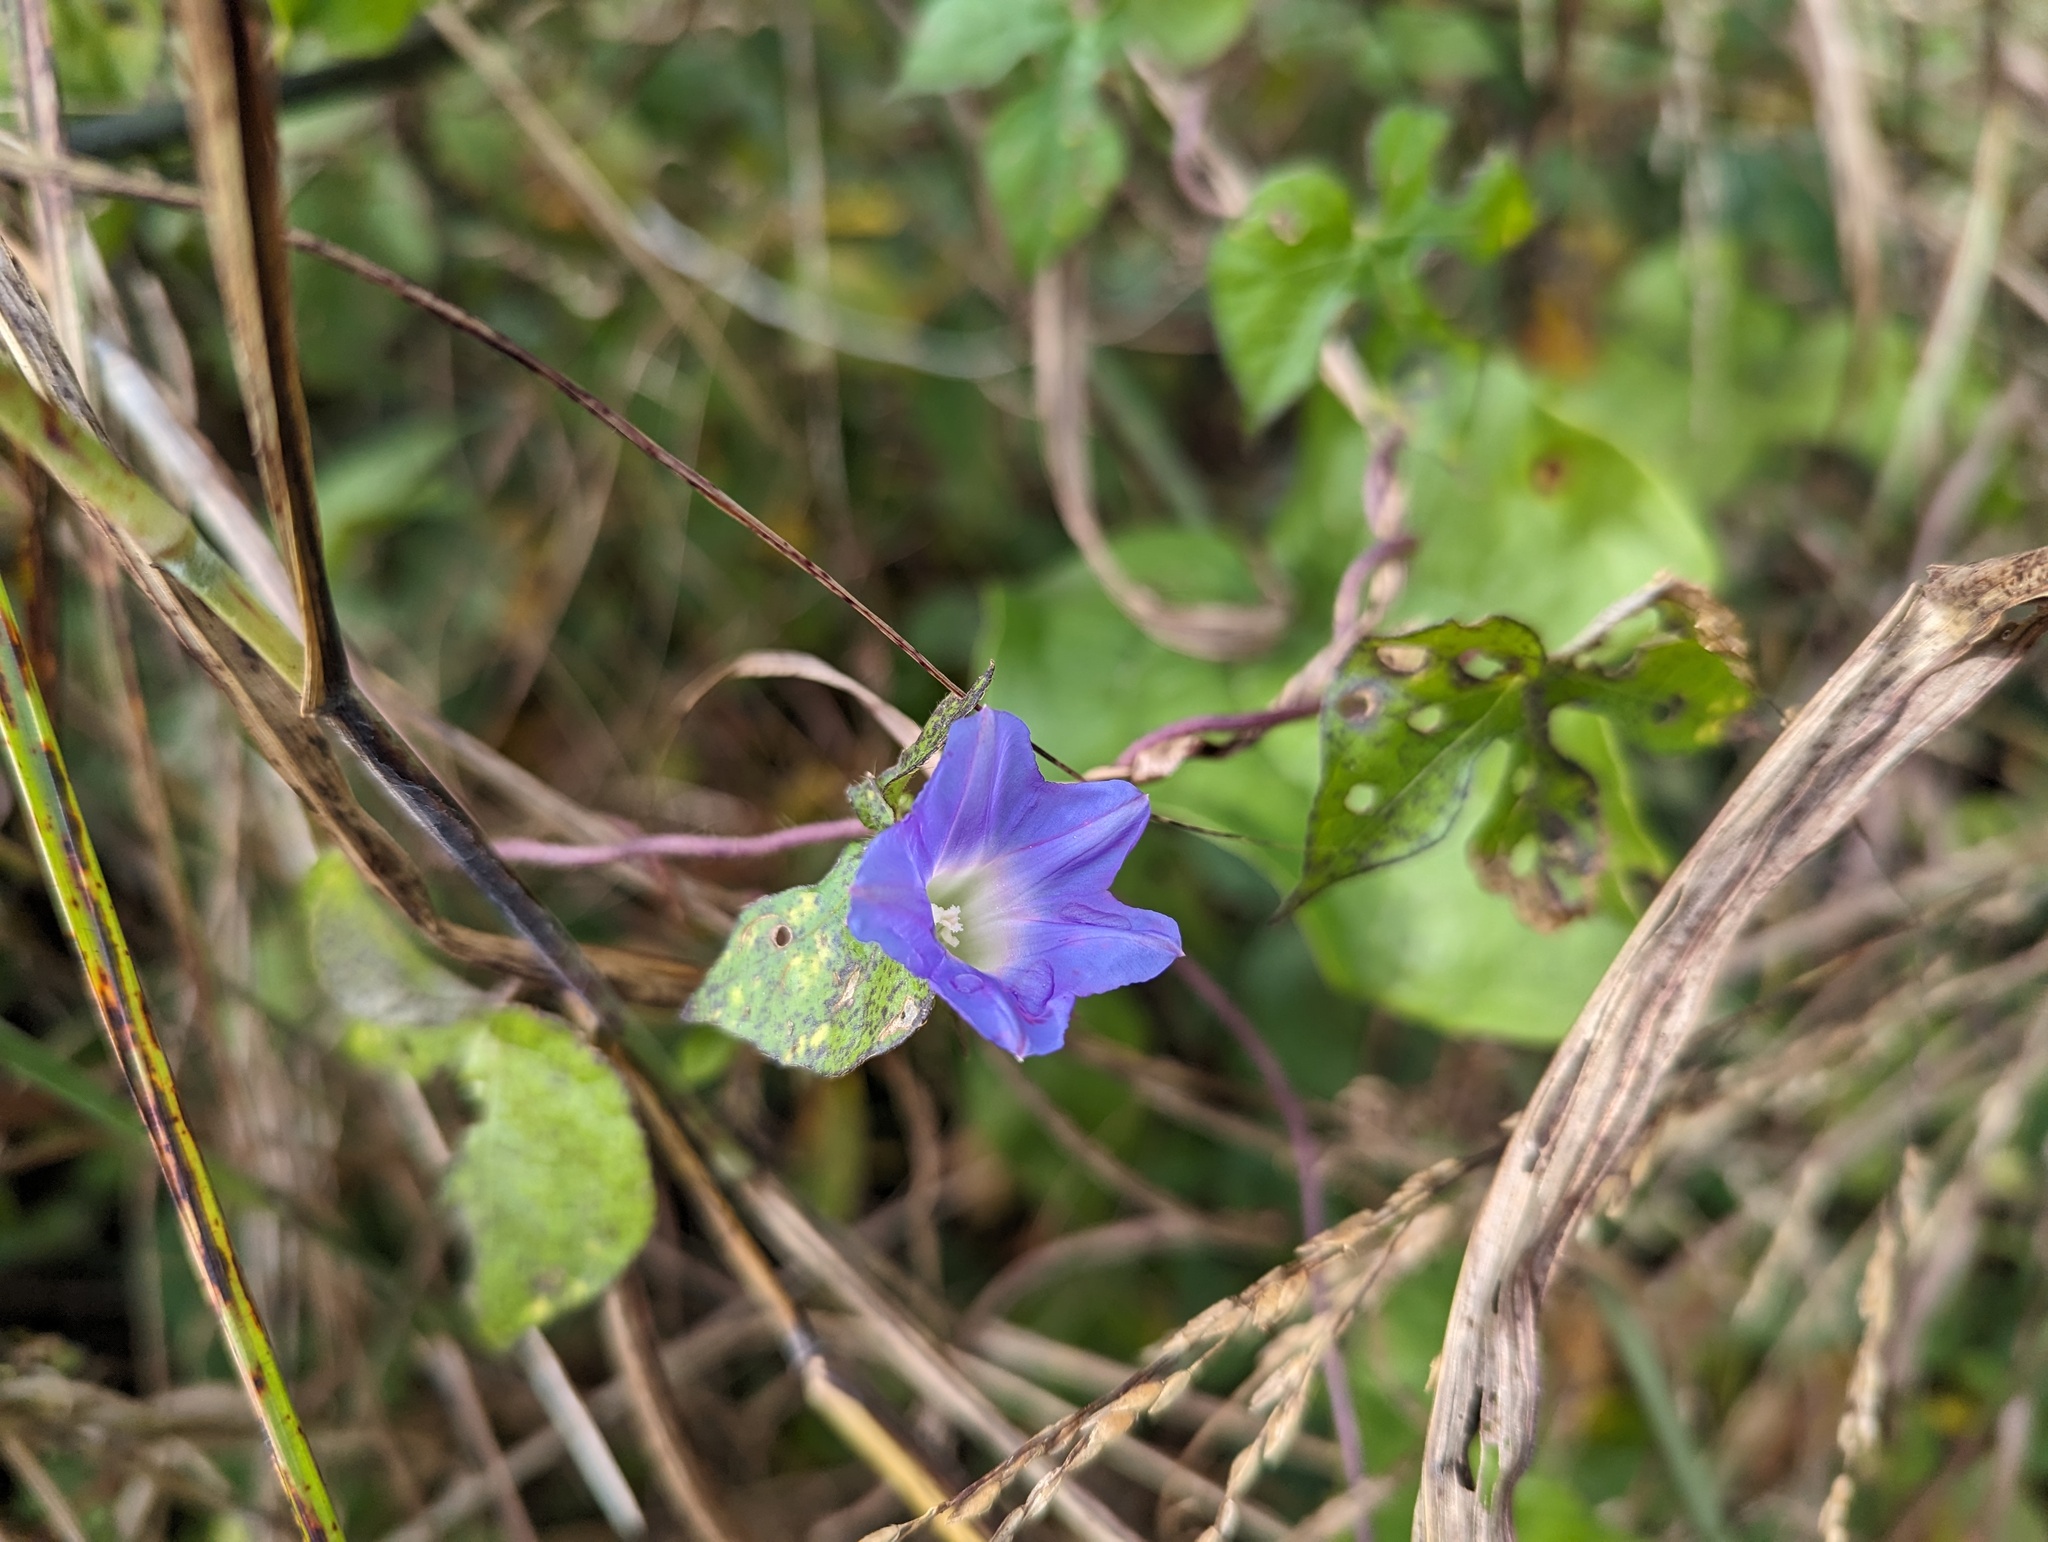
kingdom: Plantae
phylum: Tracheophyta
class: Magnoliopsida
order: Solanales
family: Convolvulaceae
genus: Ipomoea
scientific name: Ipomoea hederacea
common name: Ivy-leaved morning-glory
